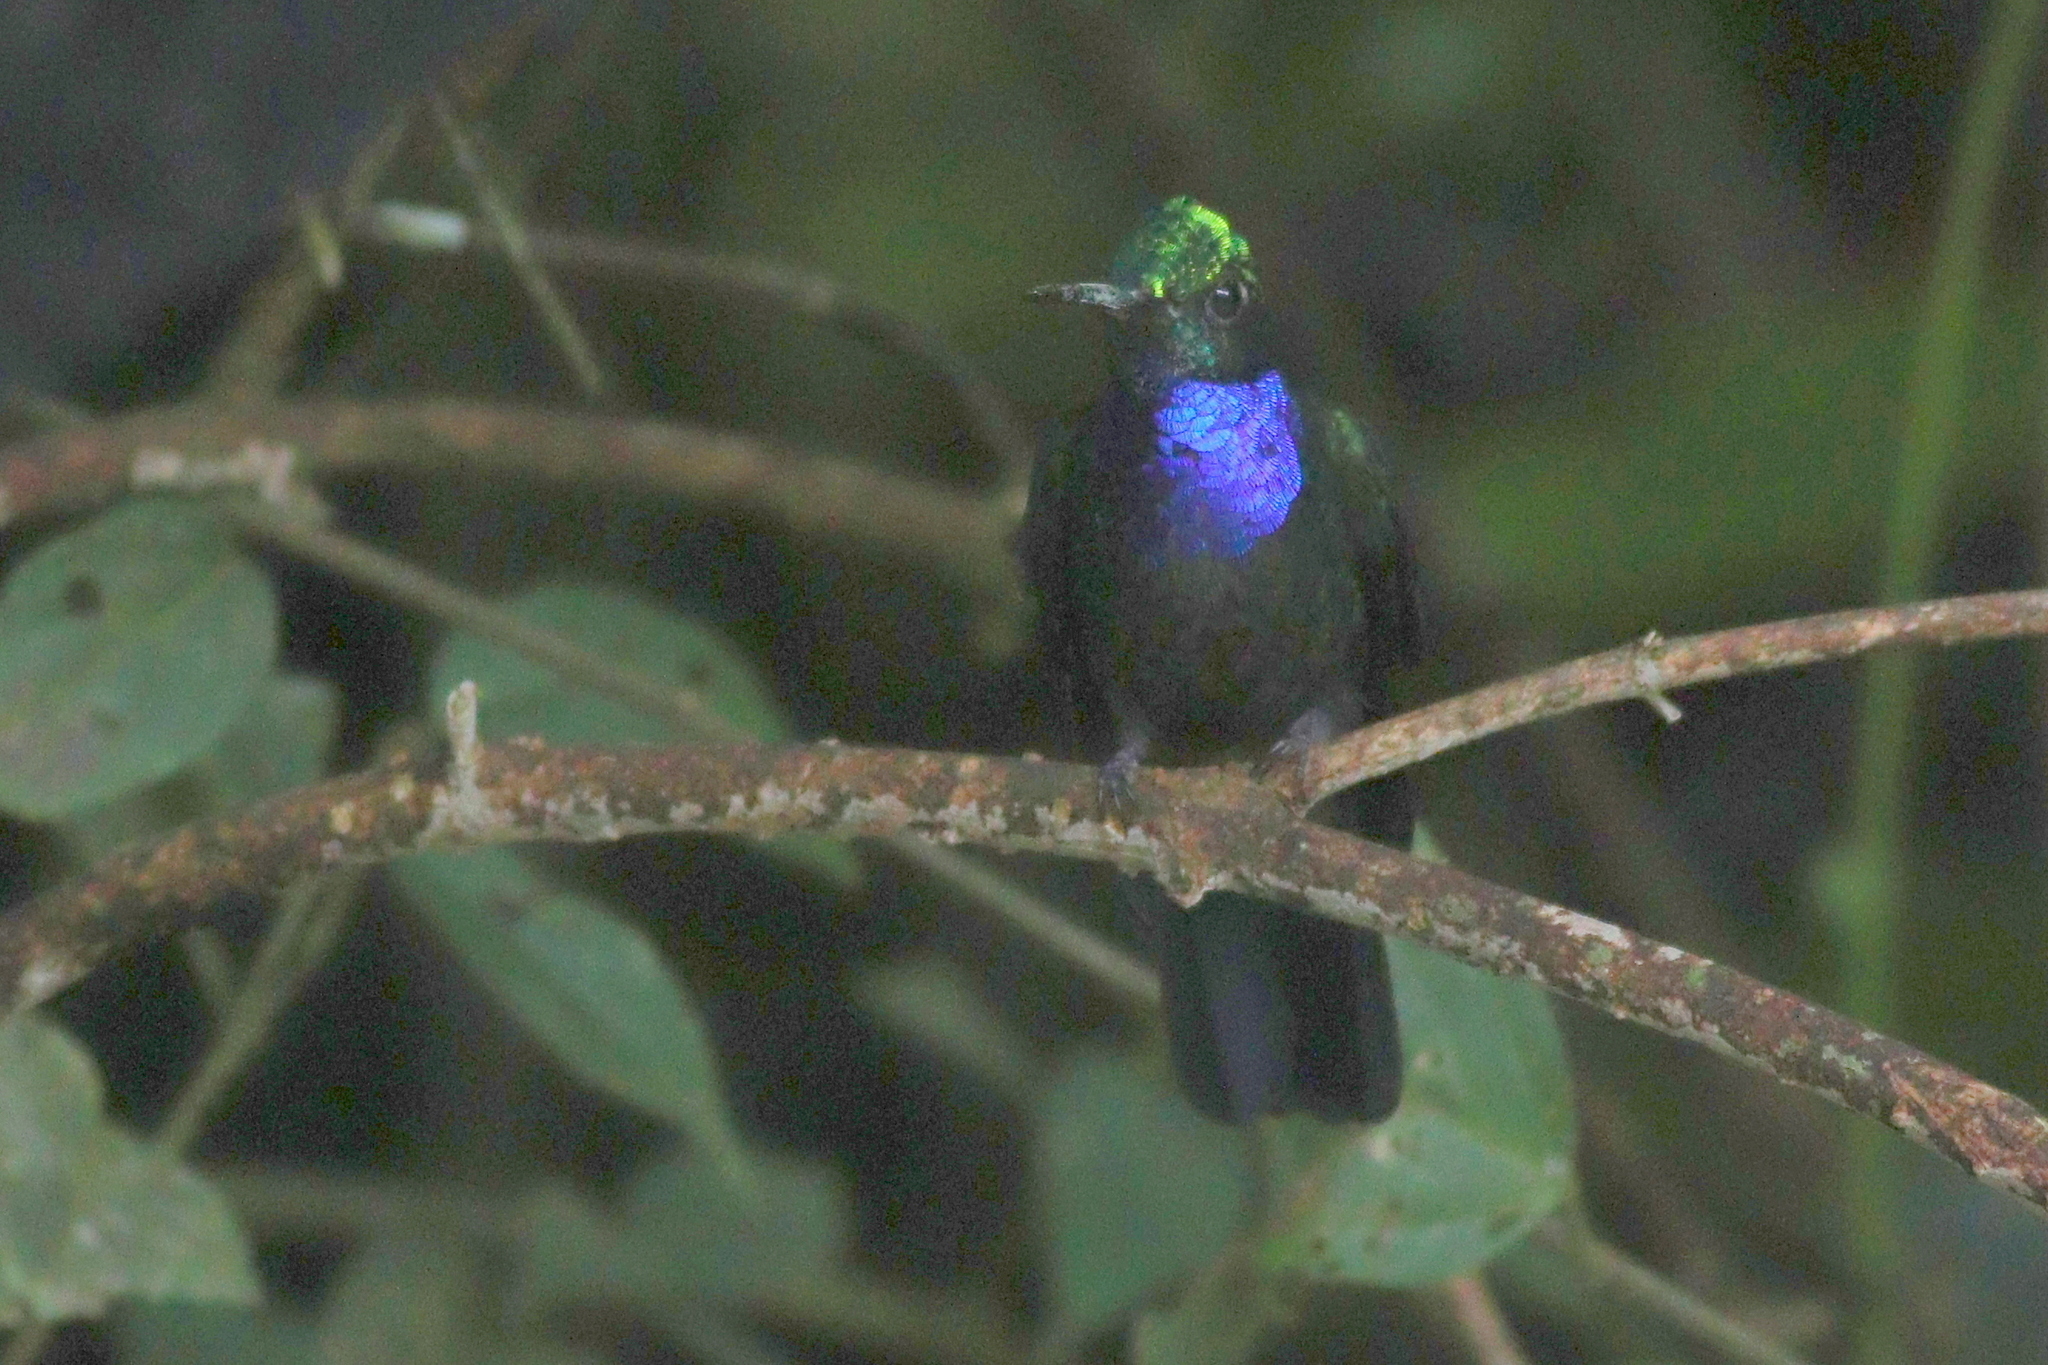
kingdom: Animalia
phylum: Chordata
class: Aves
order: Apodiformes
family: Trochilidae
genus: Campylopterus
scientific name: Campylopterus villaviscensio
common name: Napo sabrewing
